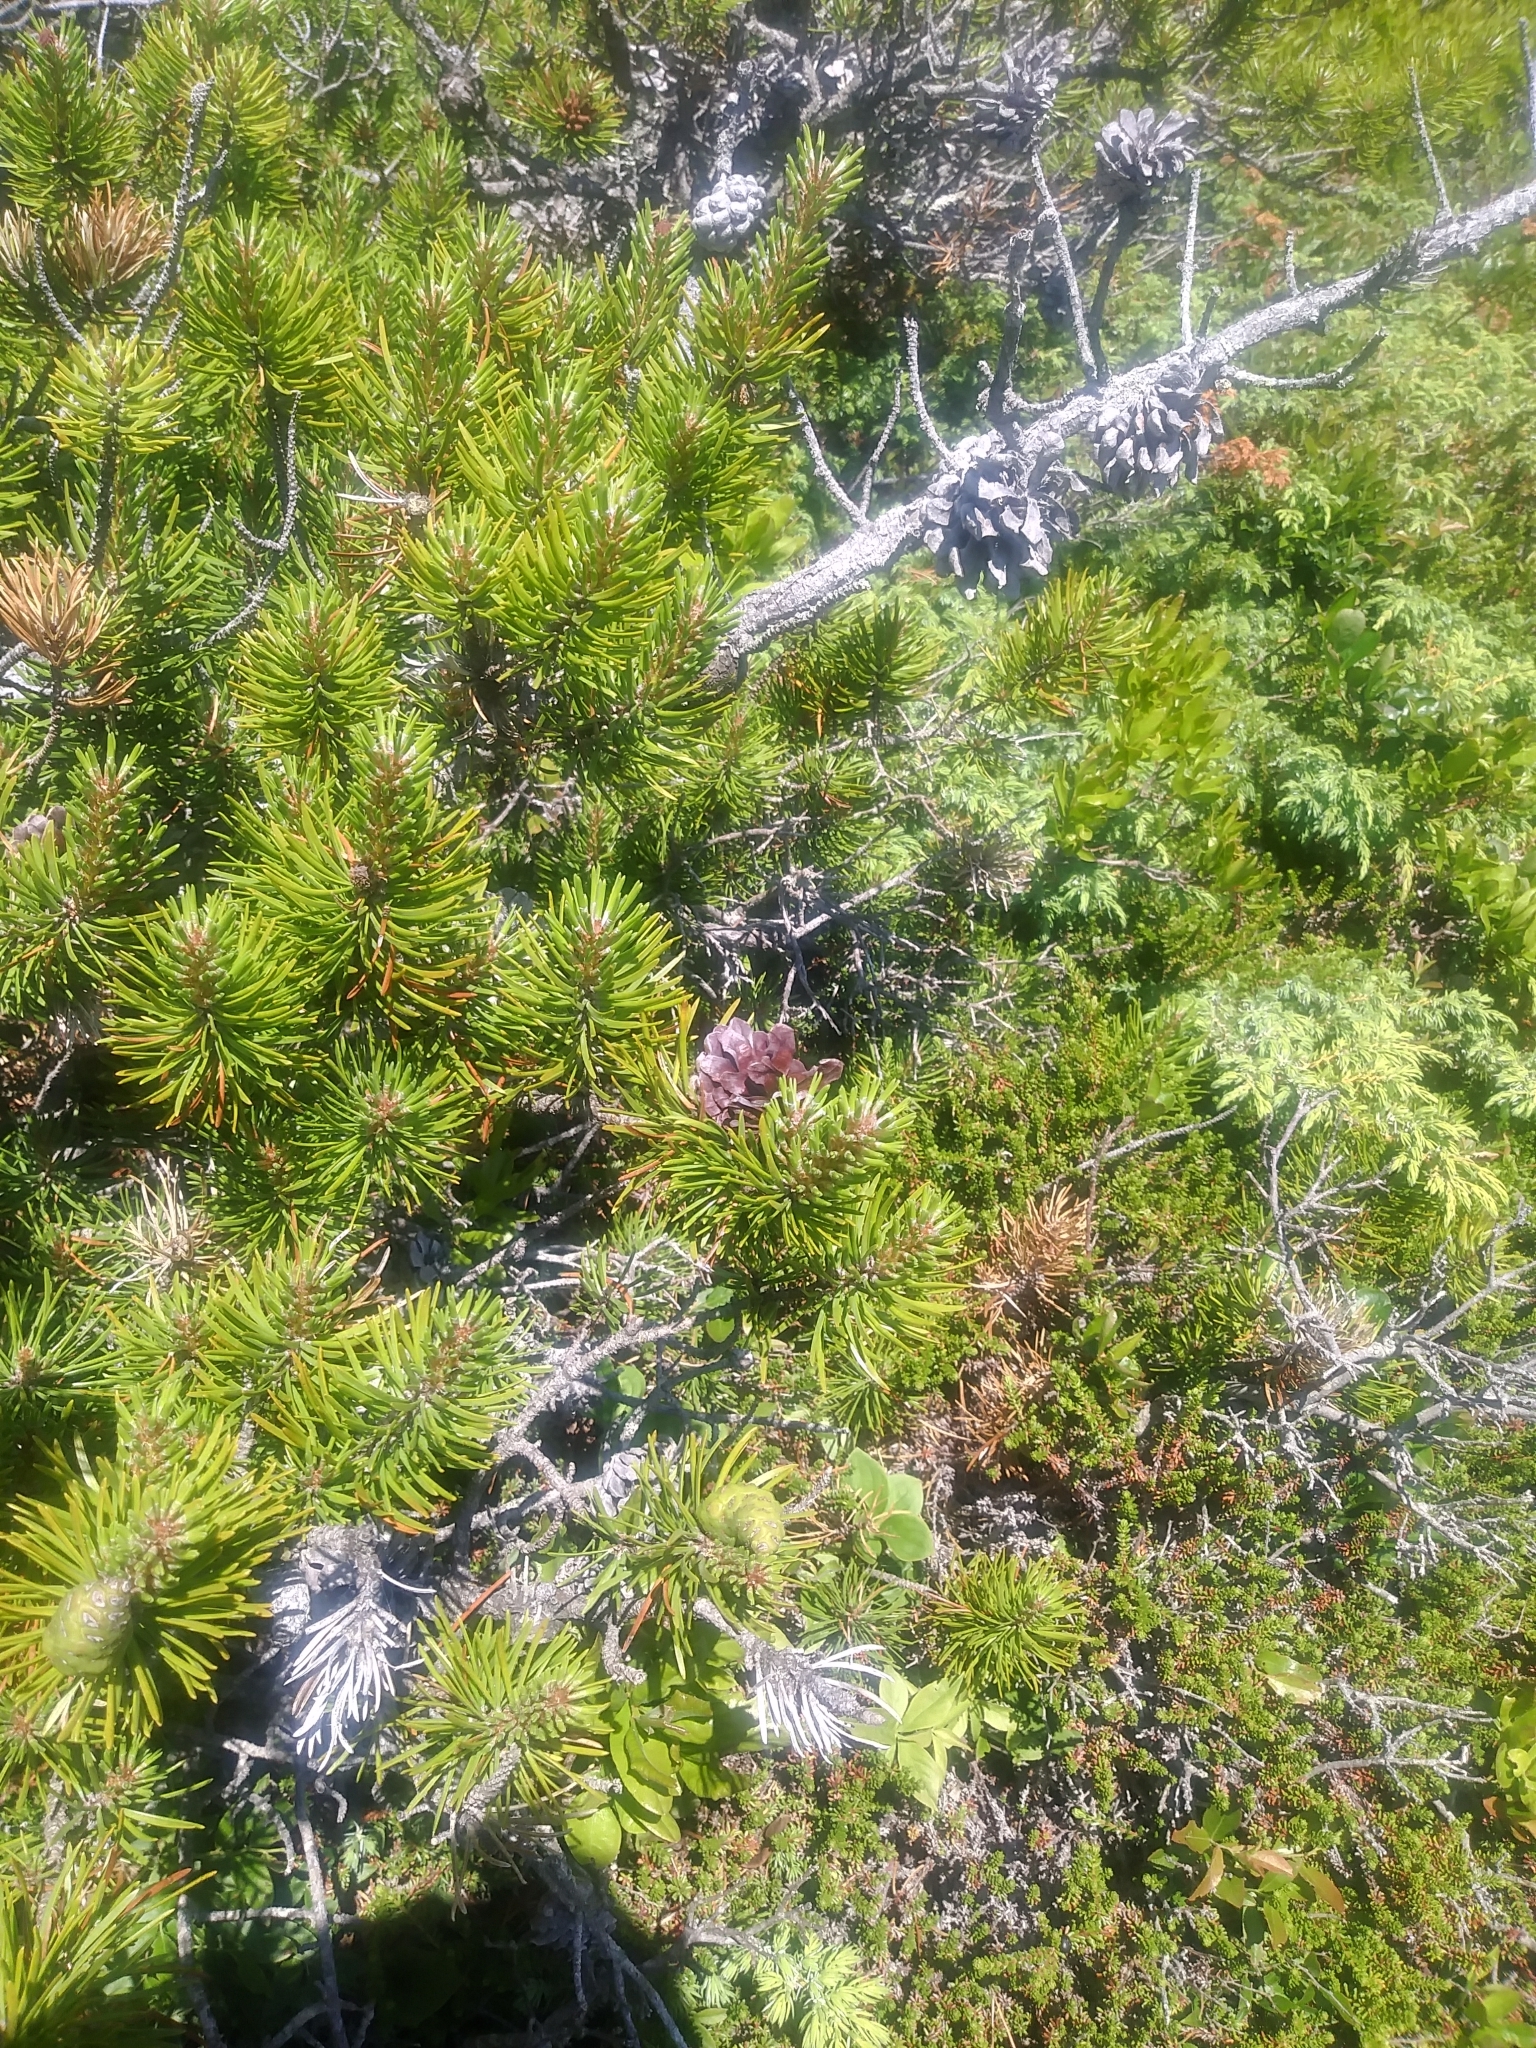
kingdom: Plantae
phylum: Tracheophyta
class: Pinopsida
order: Pinales
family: Pinaceae
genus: Pinus
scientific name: Pinus banksiana
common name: Jack pine
